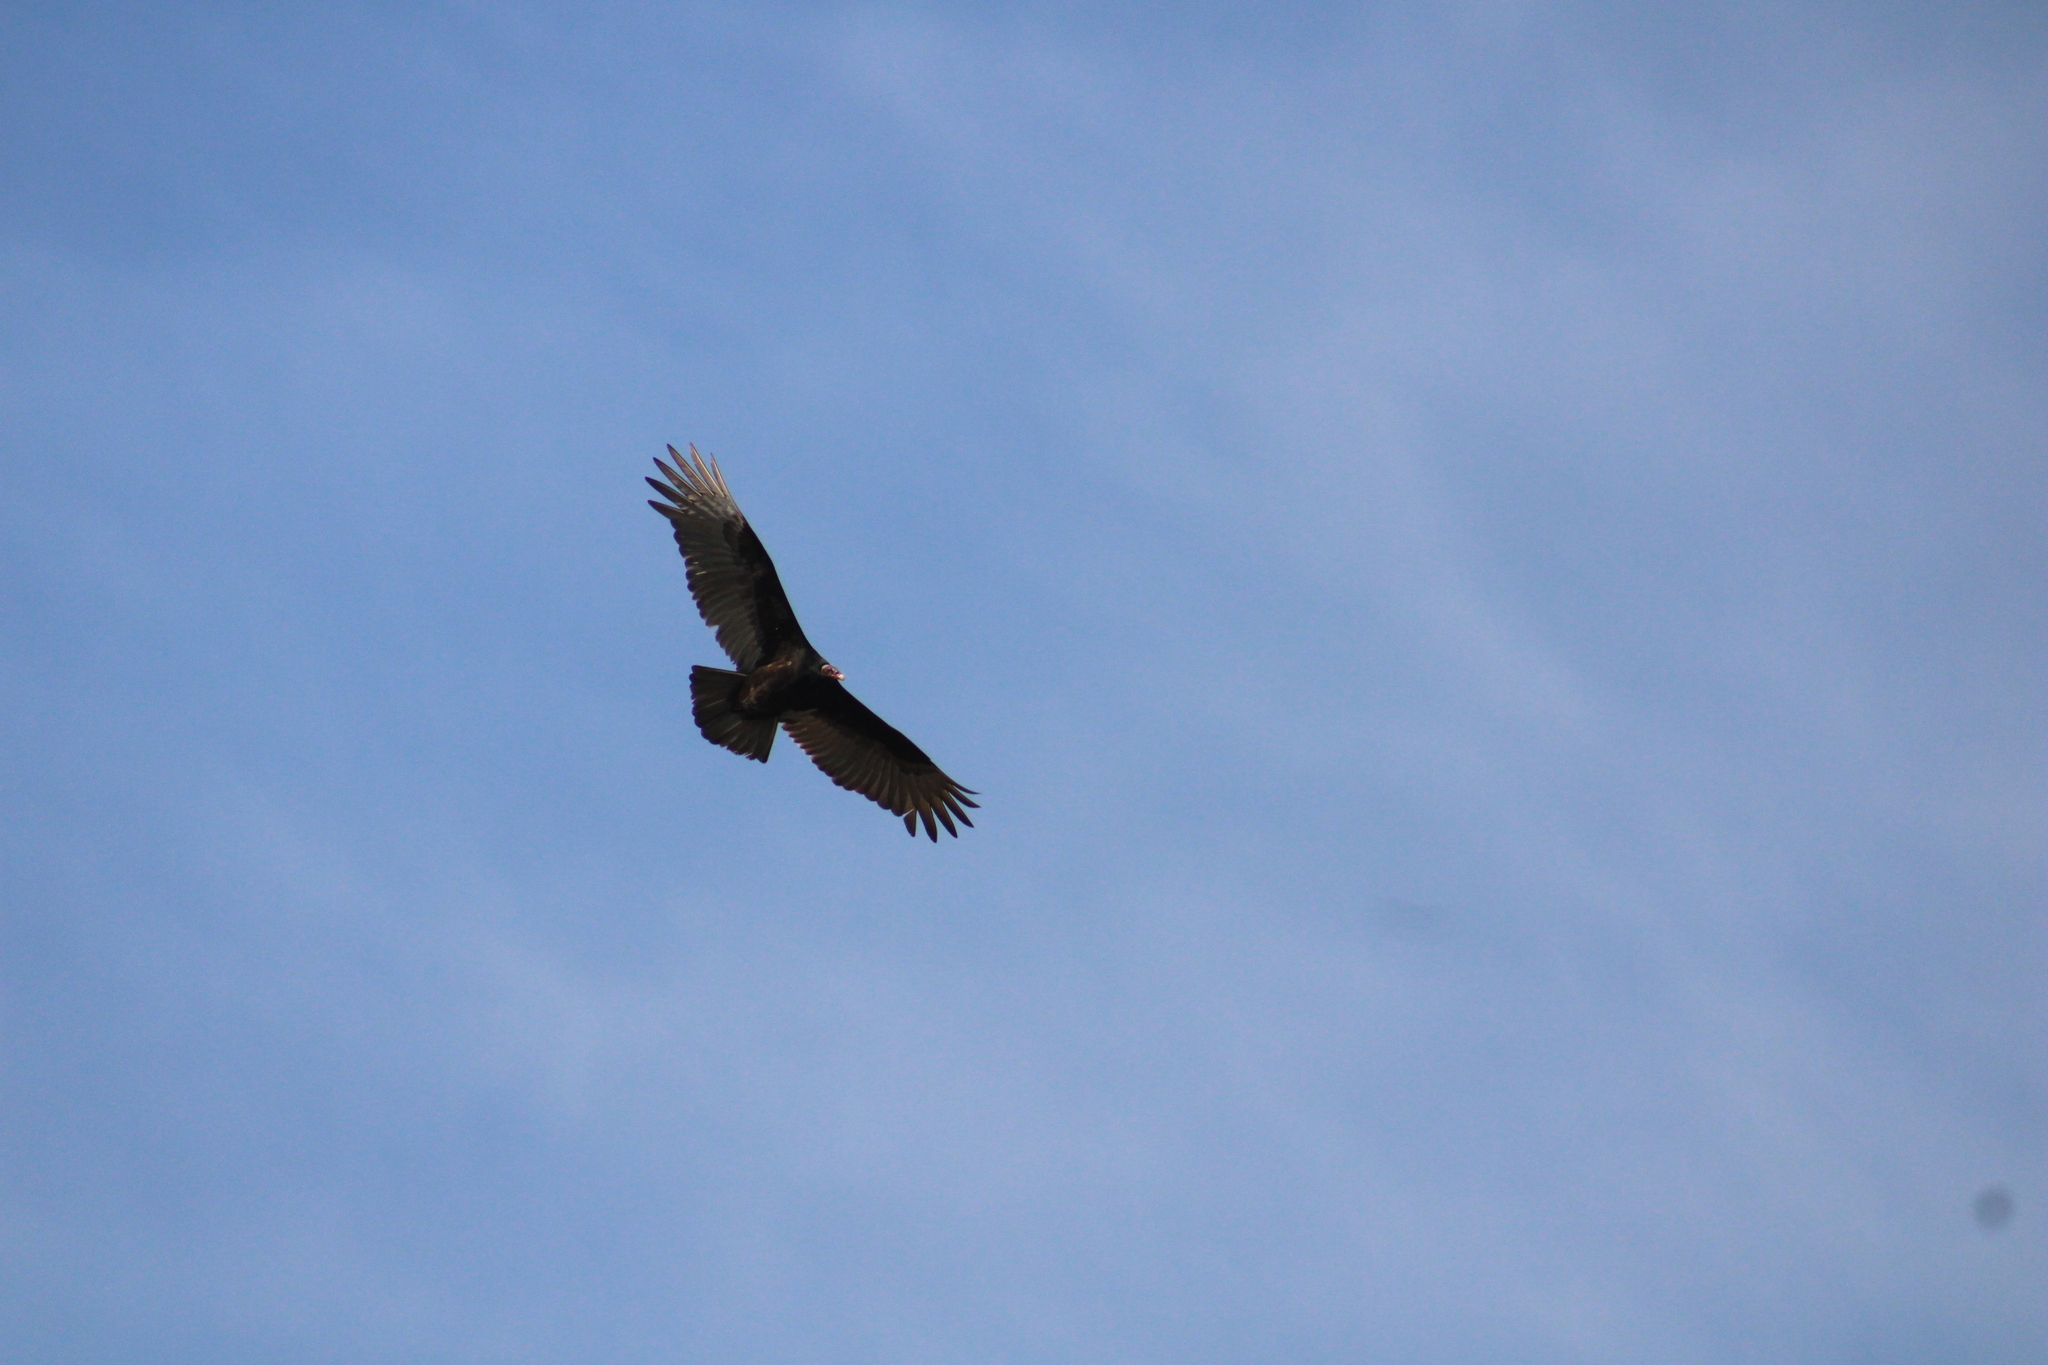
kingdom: Animalia
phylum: Chordata
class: Aves
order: Accipitriformes
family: Cathartidae
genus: Cathartes
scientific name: Cathartes aura
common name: Turkey vulture
